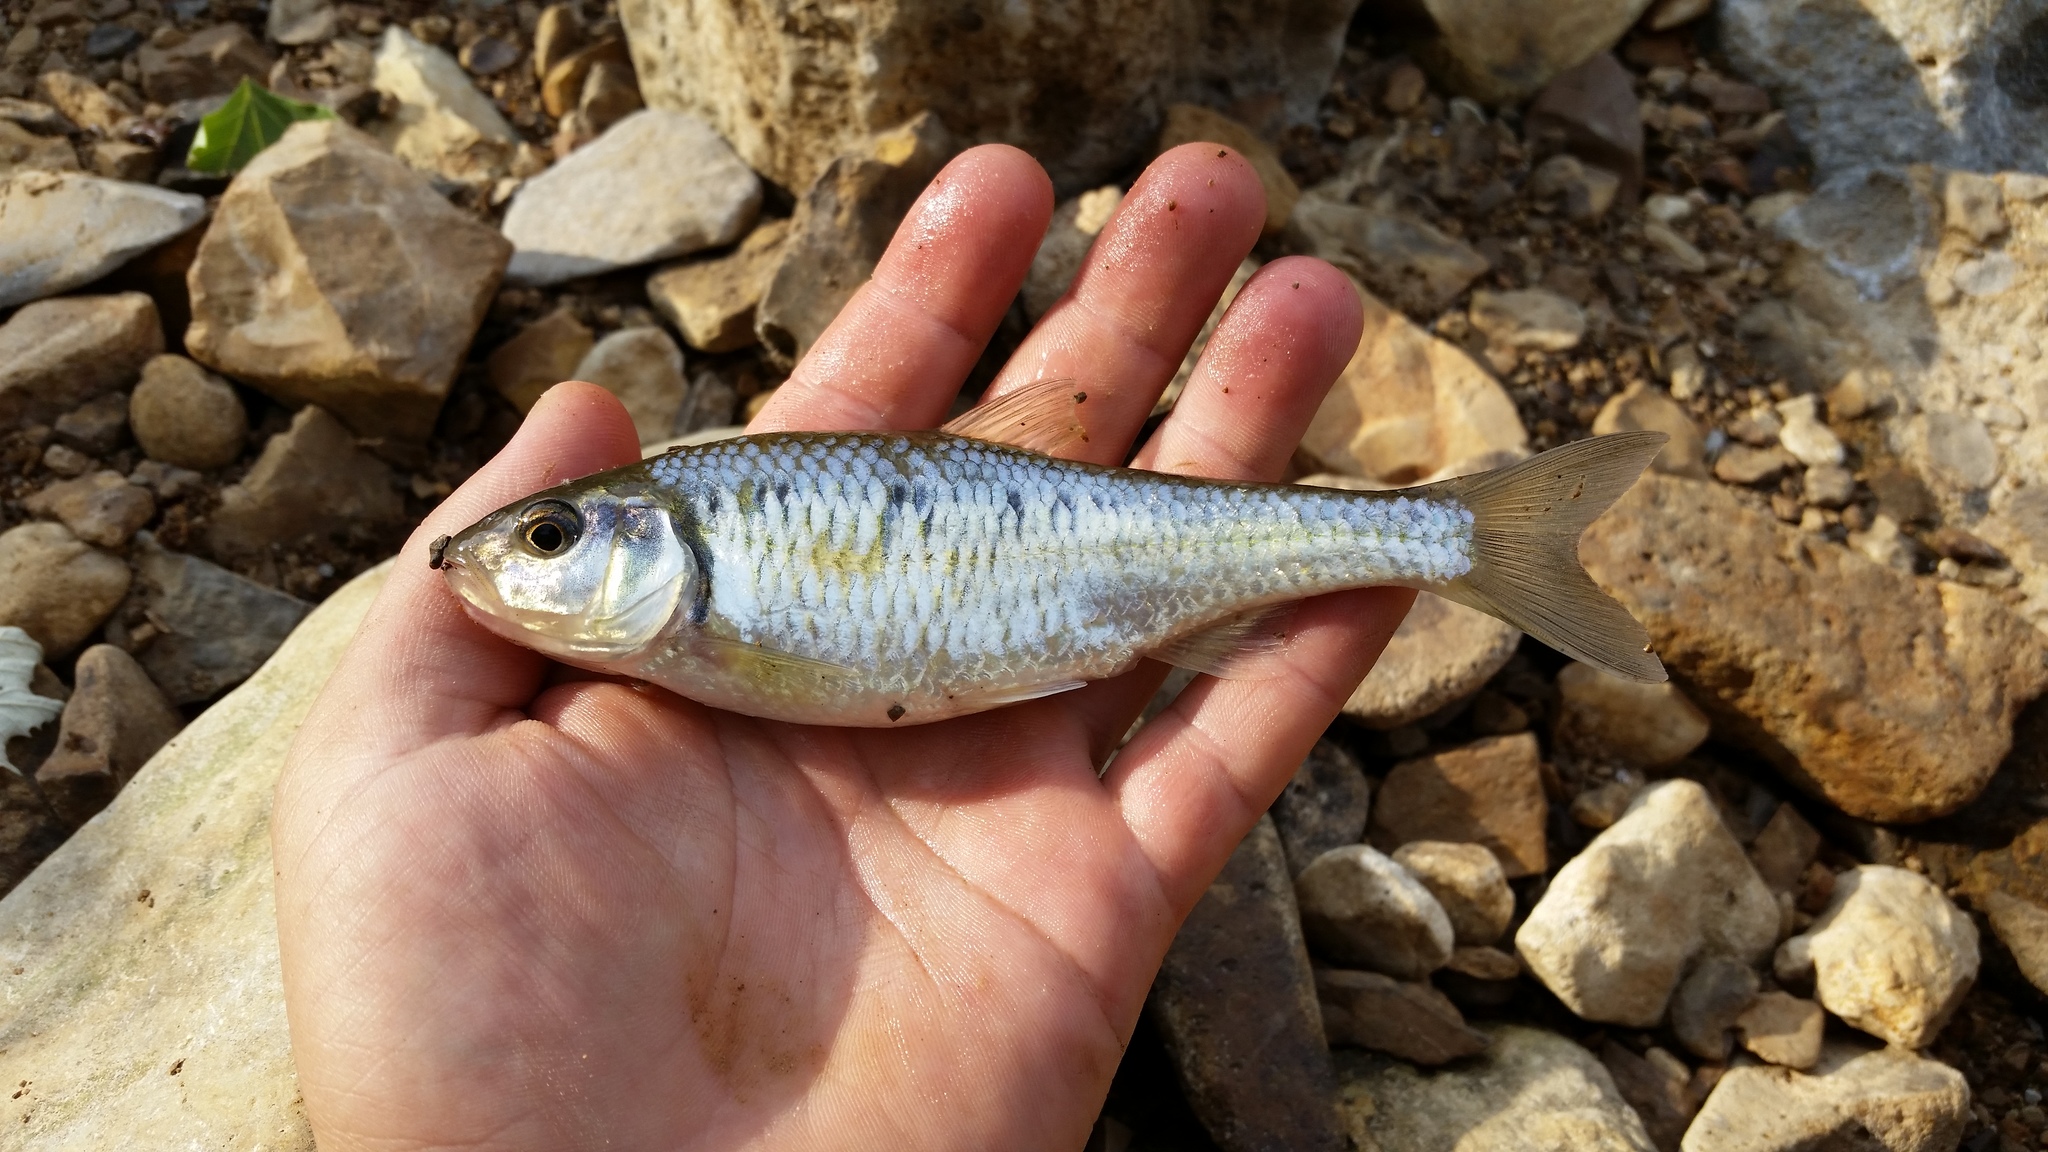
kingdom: Animalia
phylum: Chordata
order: Cypriniformes
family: Cyprinidae
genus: Luxilus
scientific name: Luxilus chrysocephalus
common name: Striped shiner
